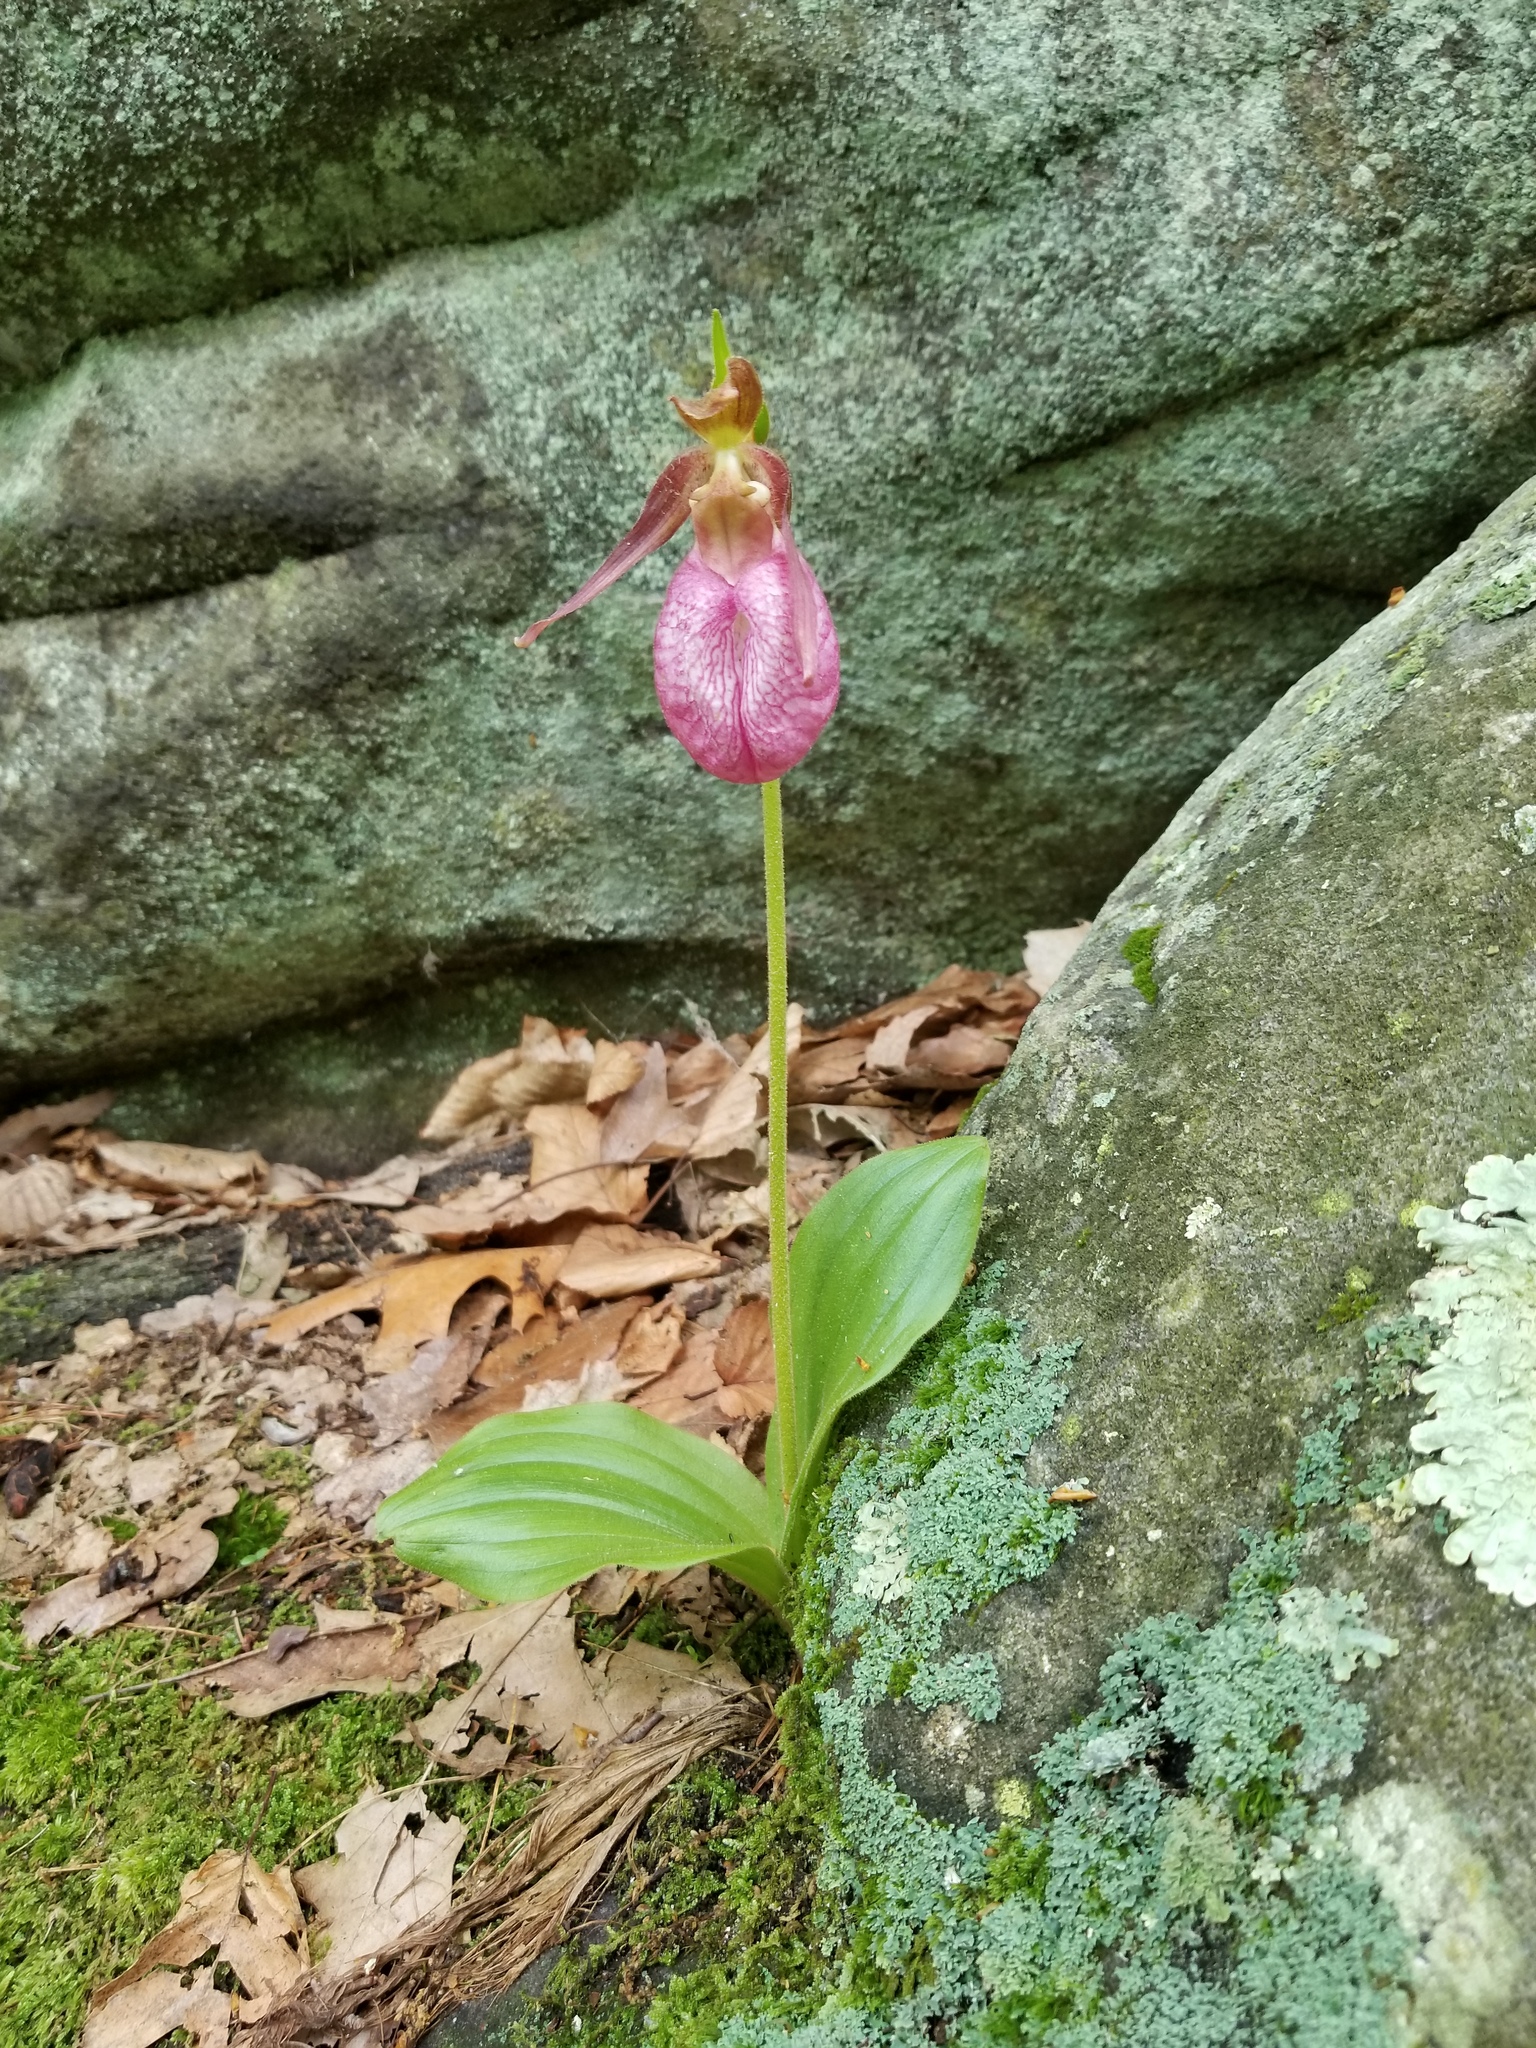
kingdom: Plantae
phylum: Tracheophyta
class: Liliopsida
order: Asparagales
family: Orchidaceae
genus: Cypripedium
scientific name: Cypripedium acaule
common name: Pink lady's-slipper
